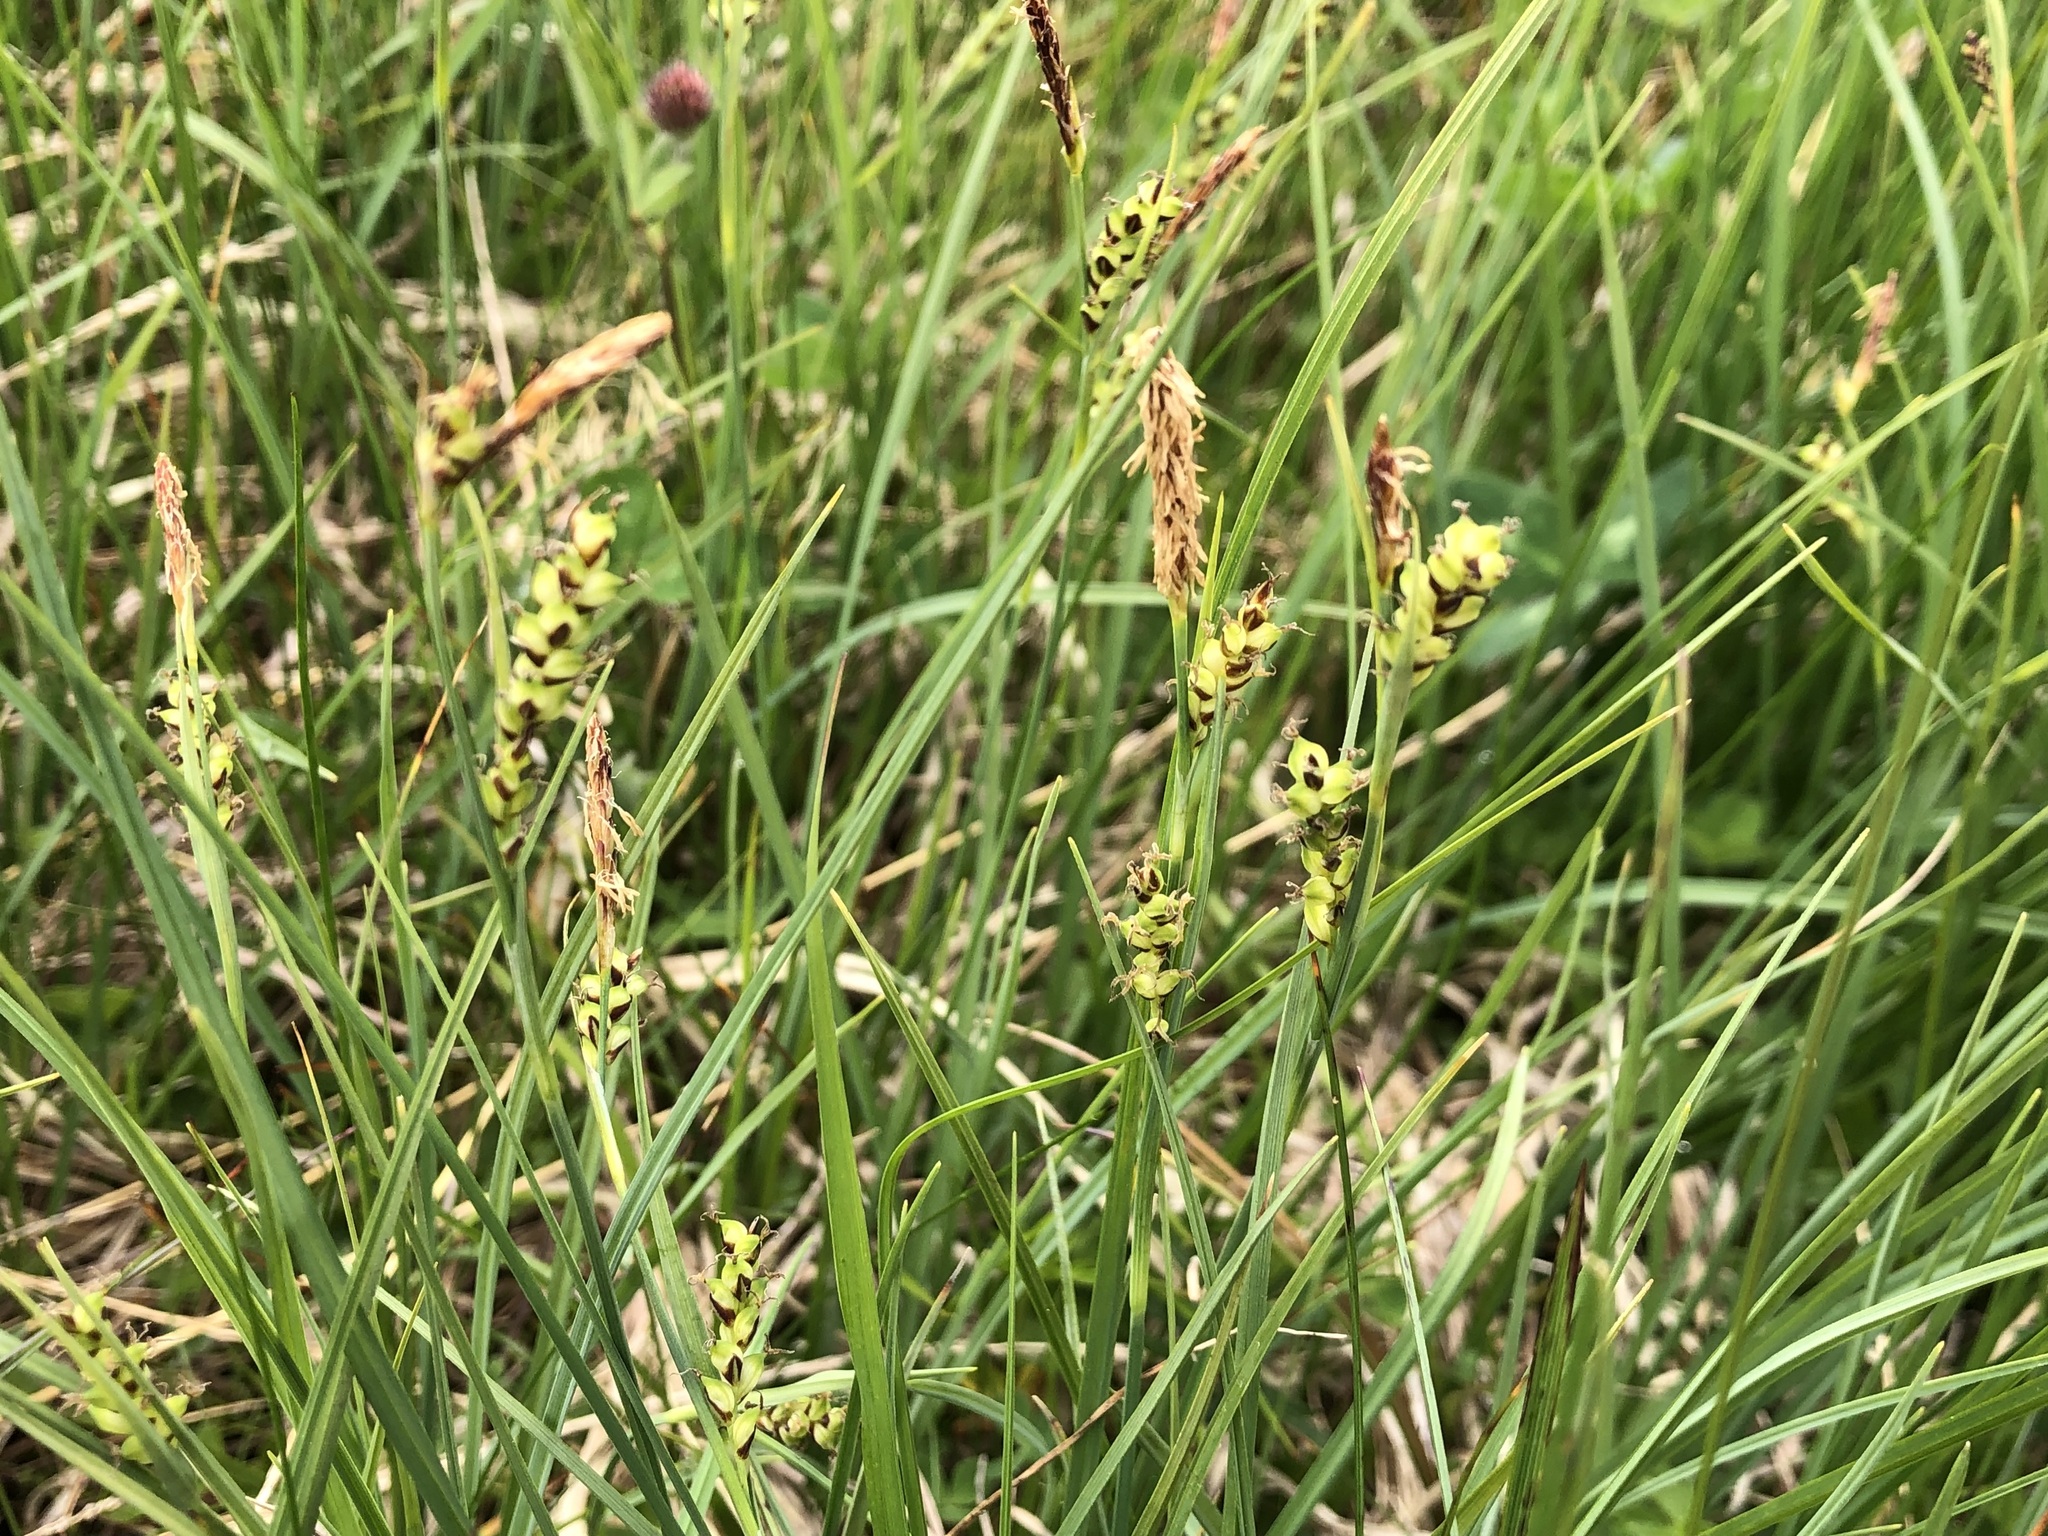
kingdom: Plantae
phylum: Tracheophyta
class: Liliopsida
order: Poales
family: Cyperaceae
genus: Carex
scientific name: Carex panicea
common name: Carnation sedge
